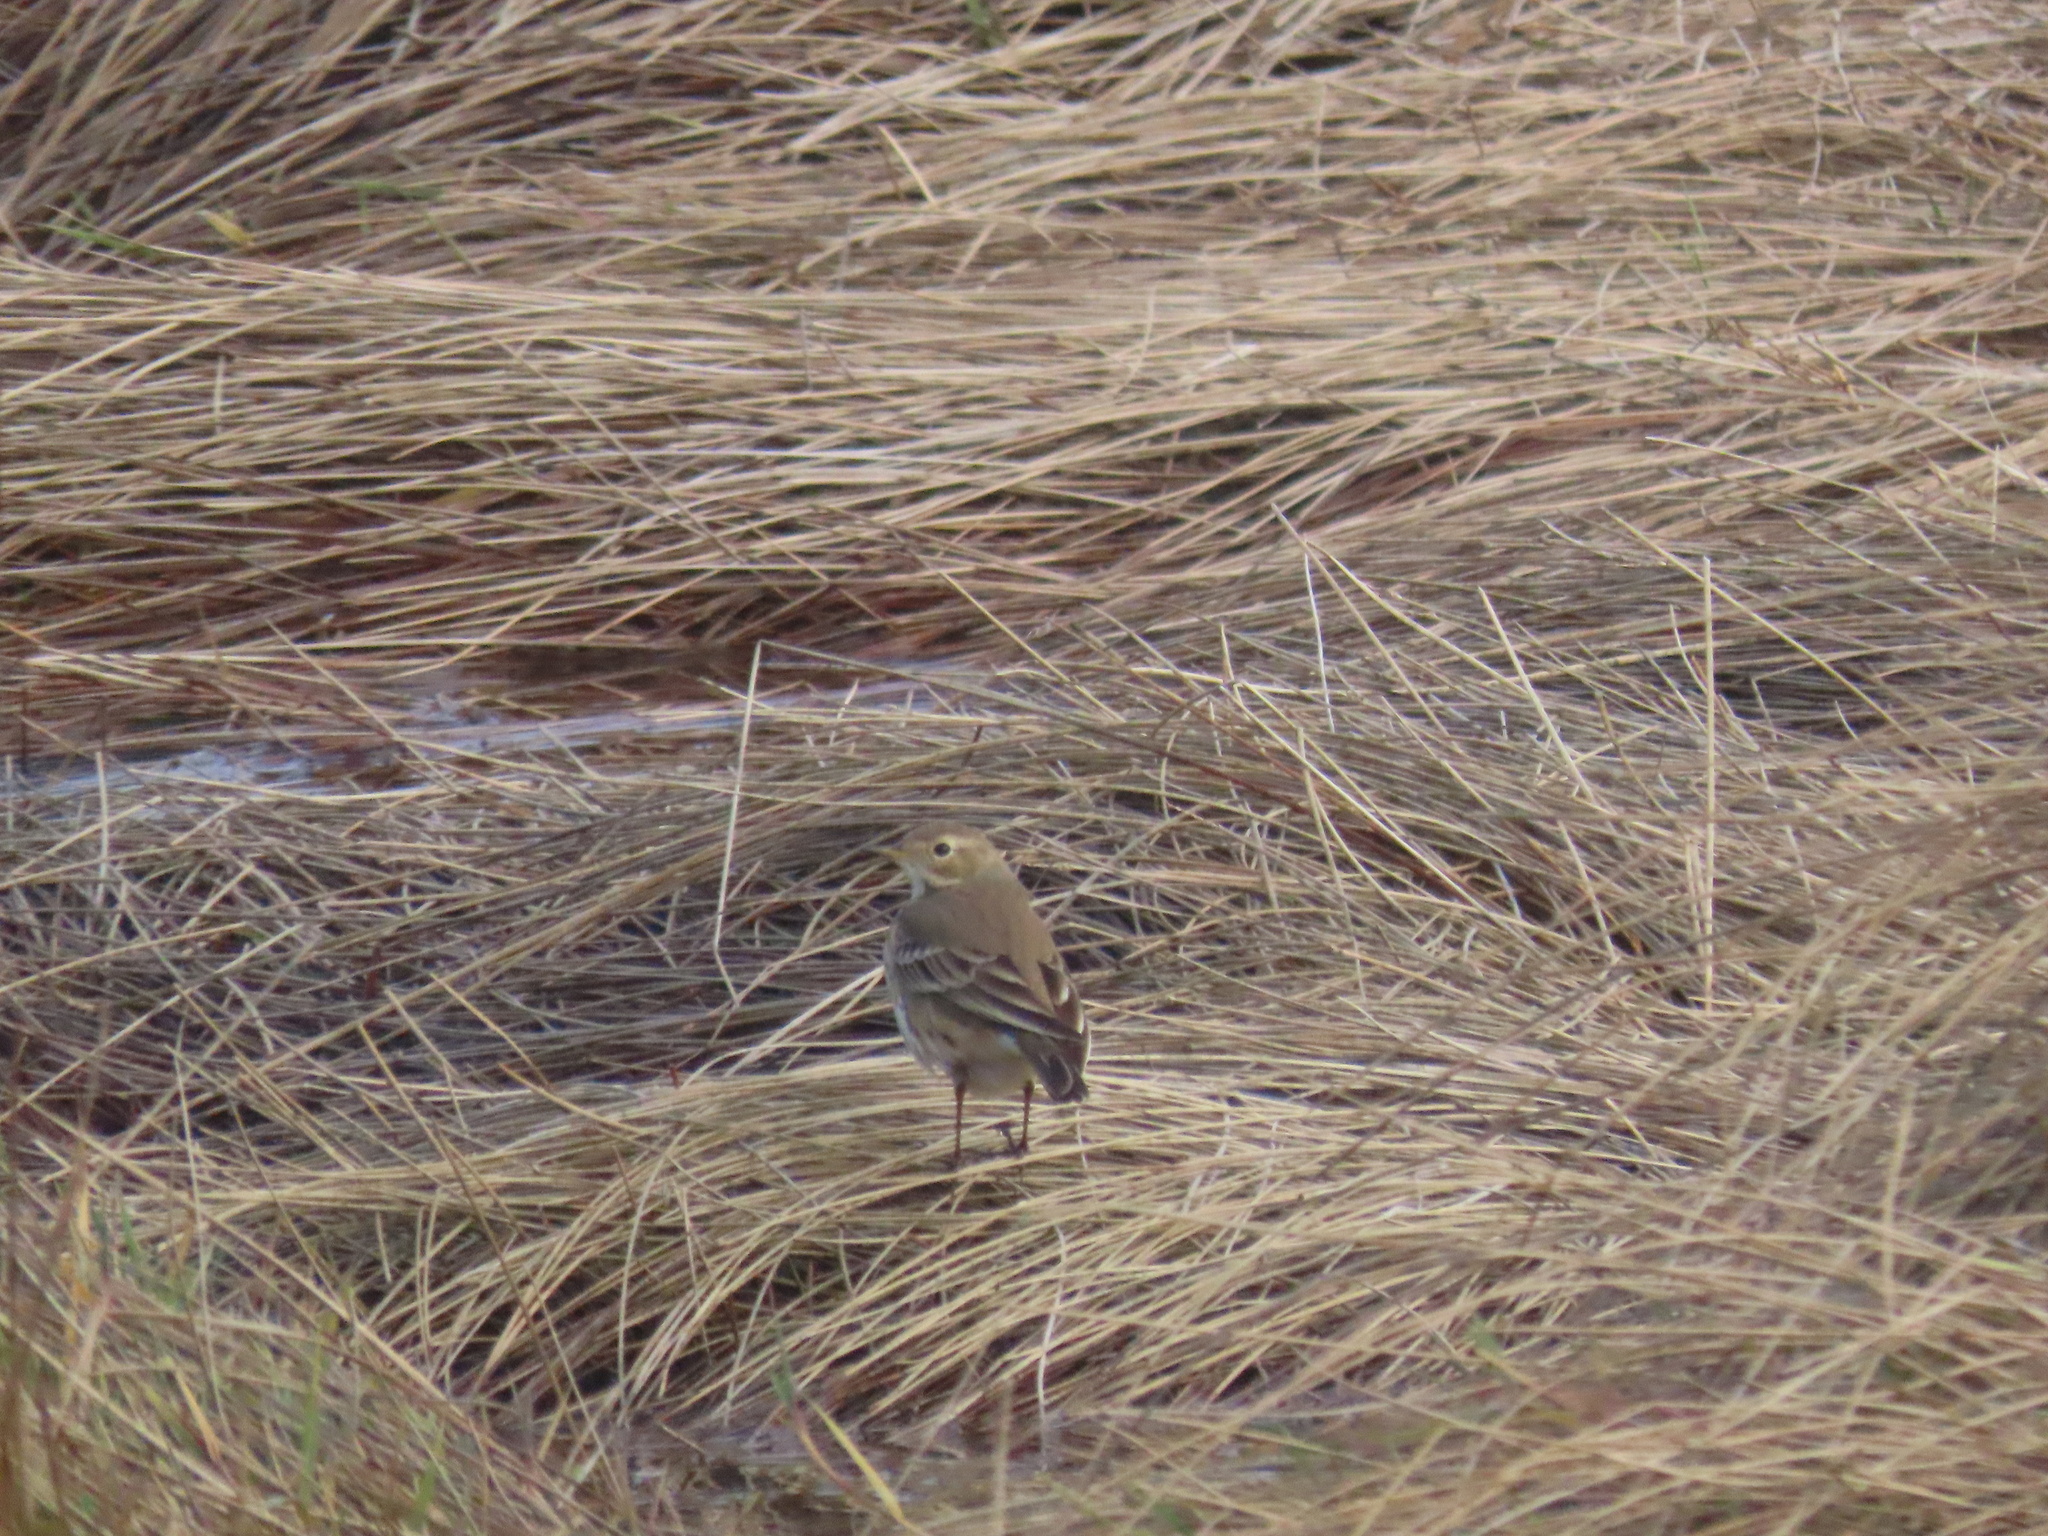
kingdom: Animalia
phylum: Chordata
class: Aves
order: Passeriformes
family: Motacillidae
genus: Anthus
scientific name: Anthus rubescens
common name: Buff-bellied pipit
